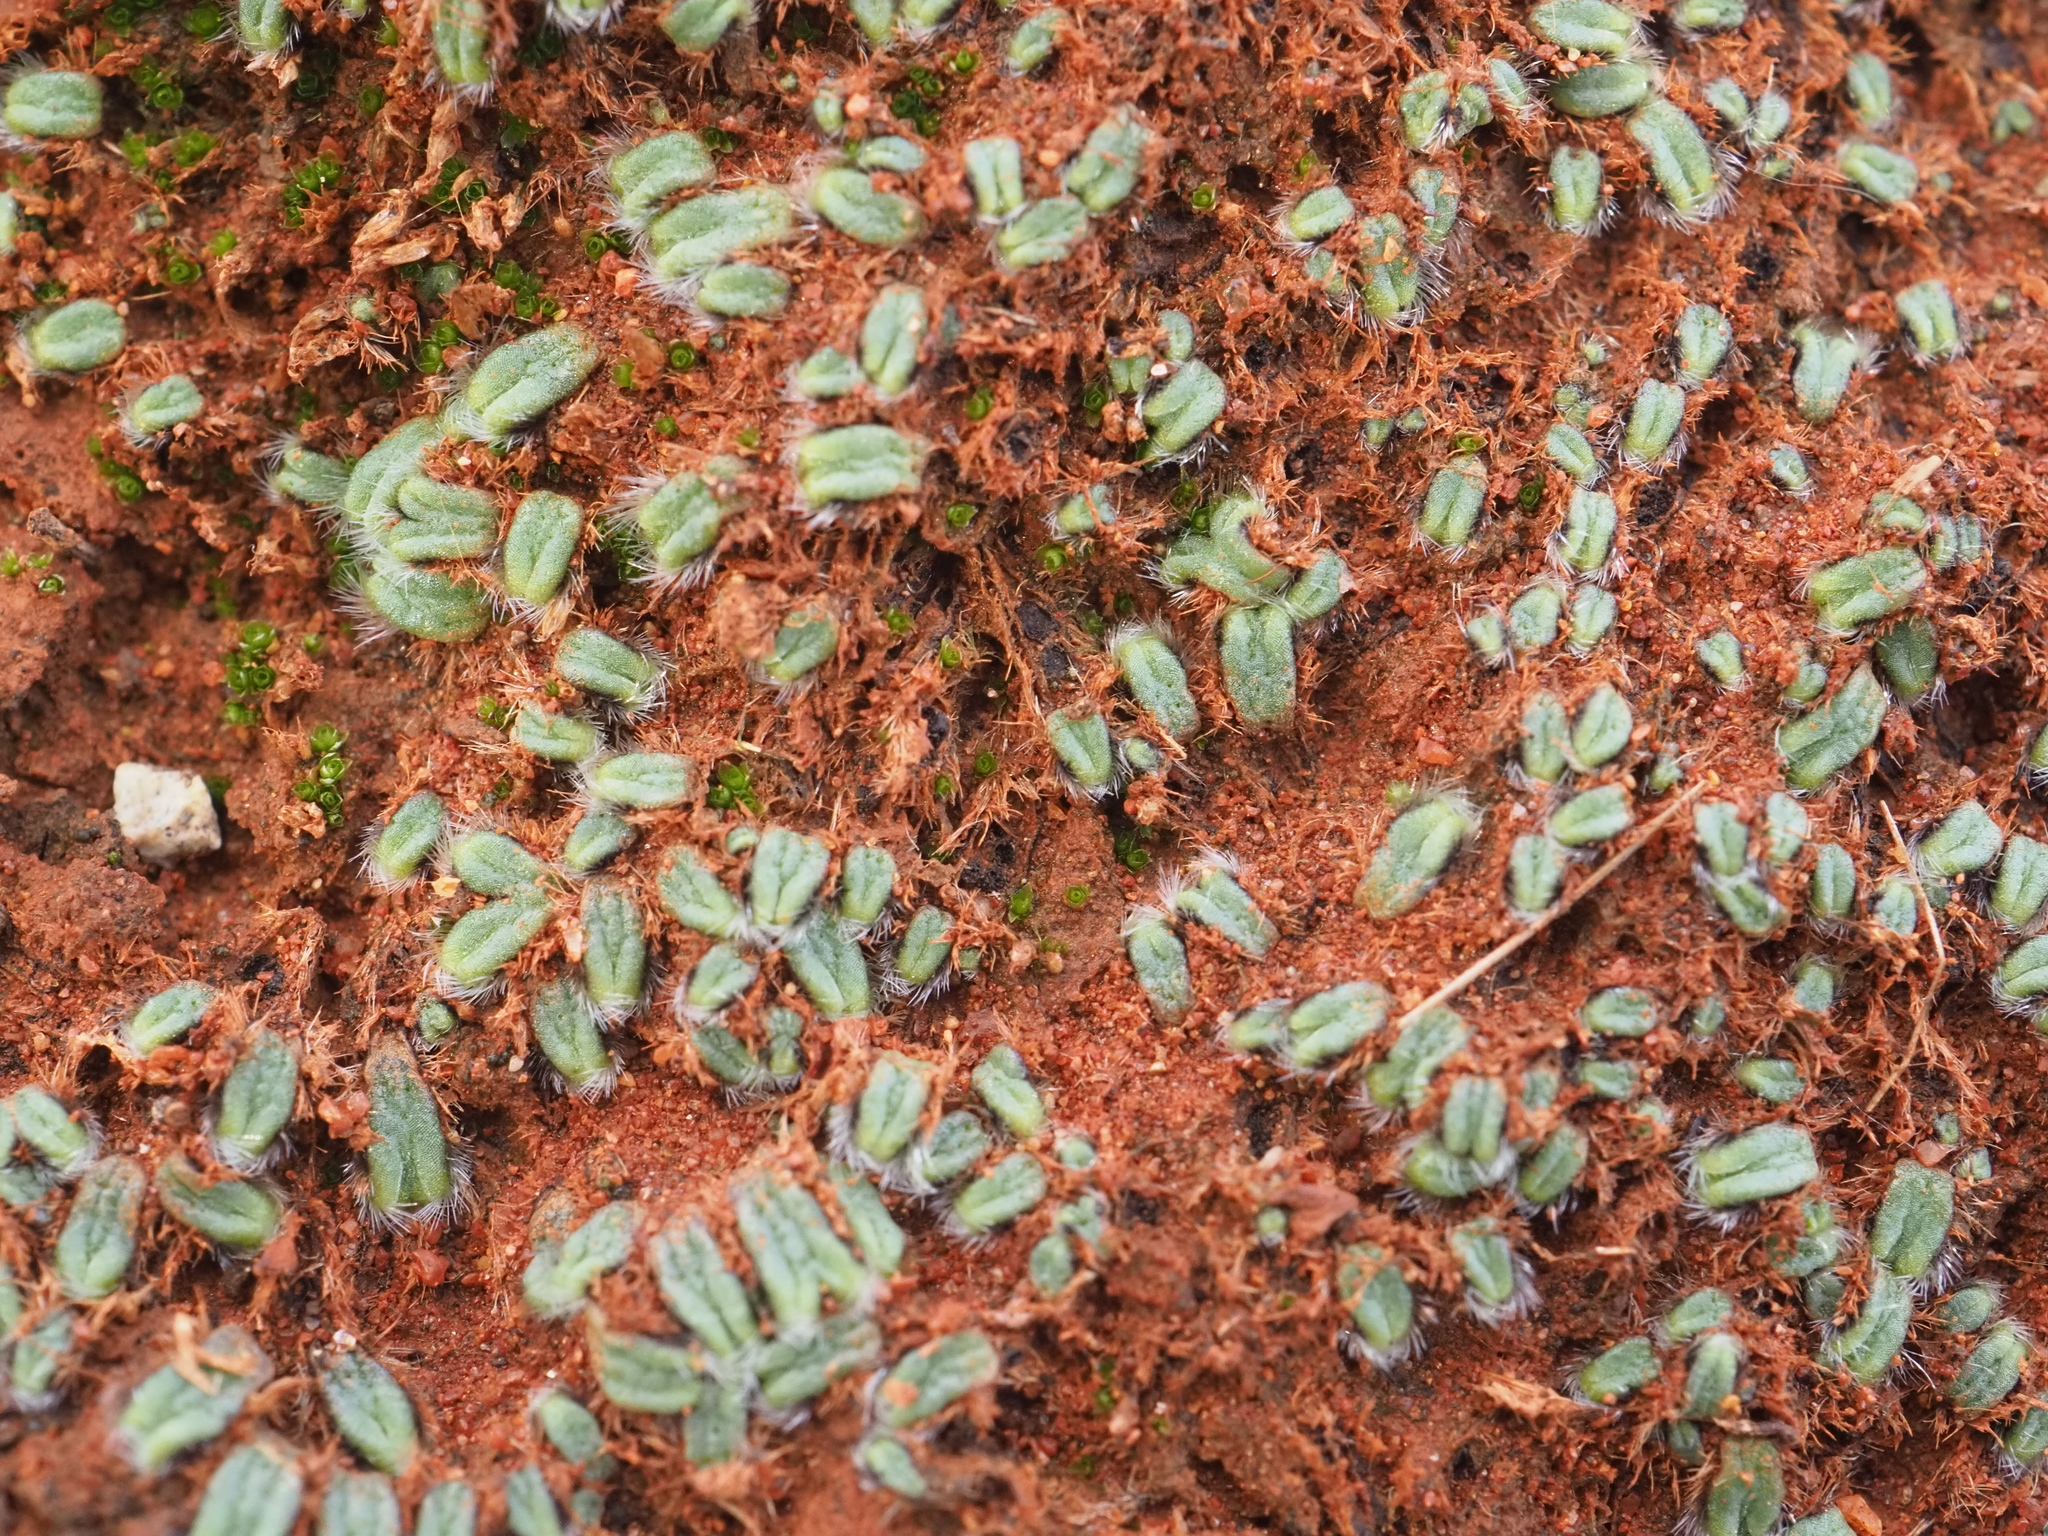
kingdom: Plantae
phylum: Marchantiophyta
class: Marchantiopsida
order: Marchantiales
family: Ricciaceae
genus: Riccia
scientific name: Riccia crinita
